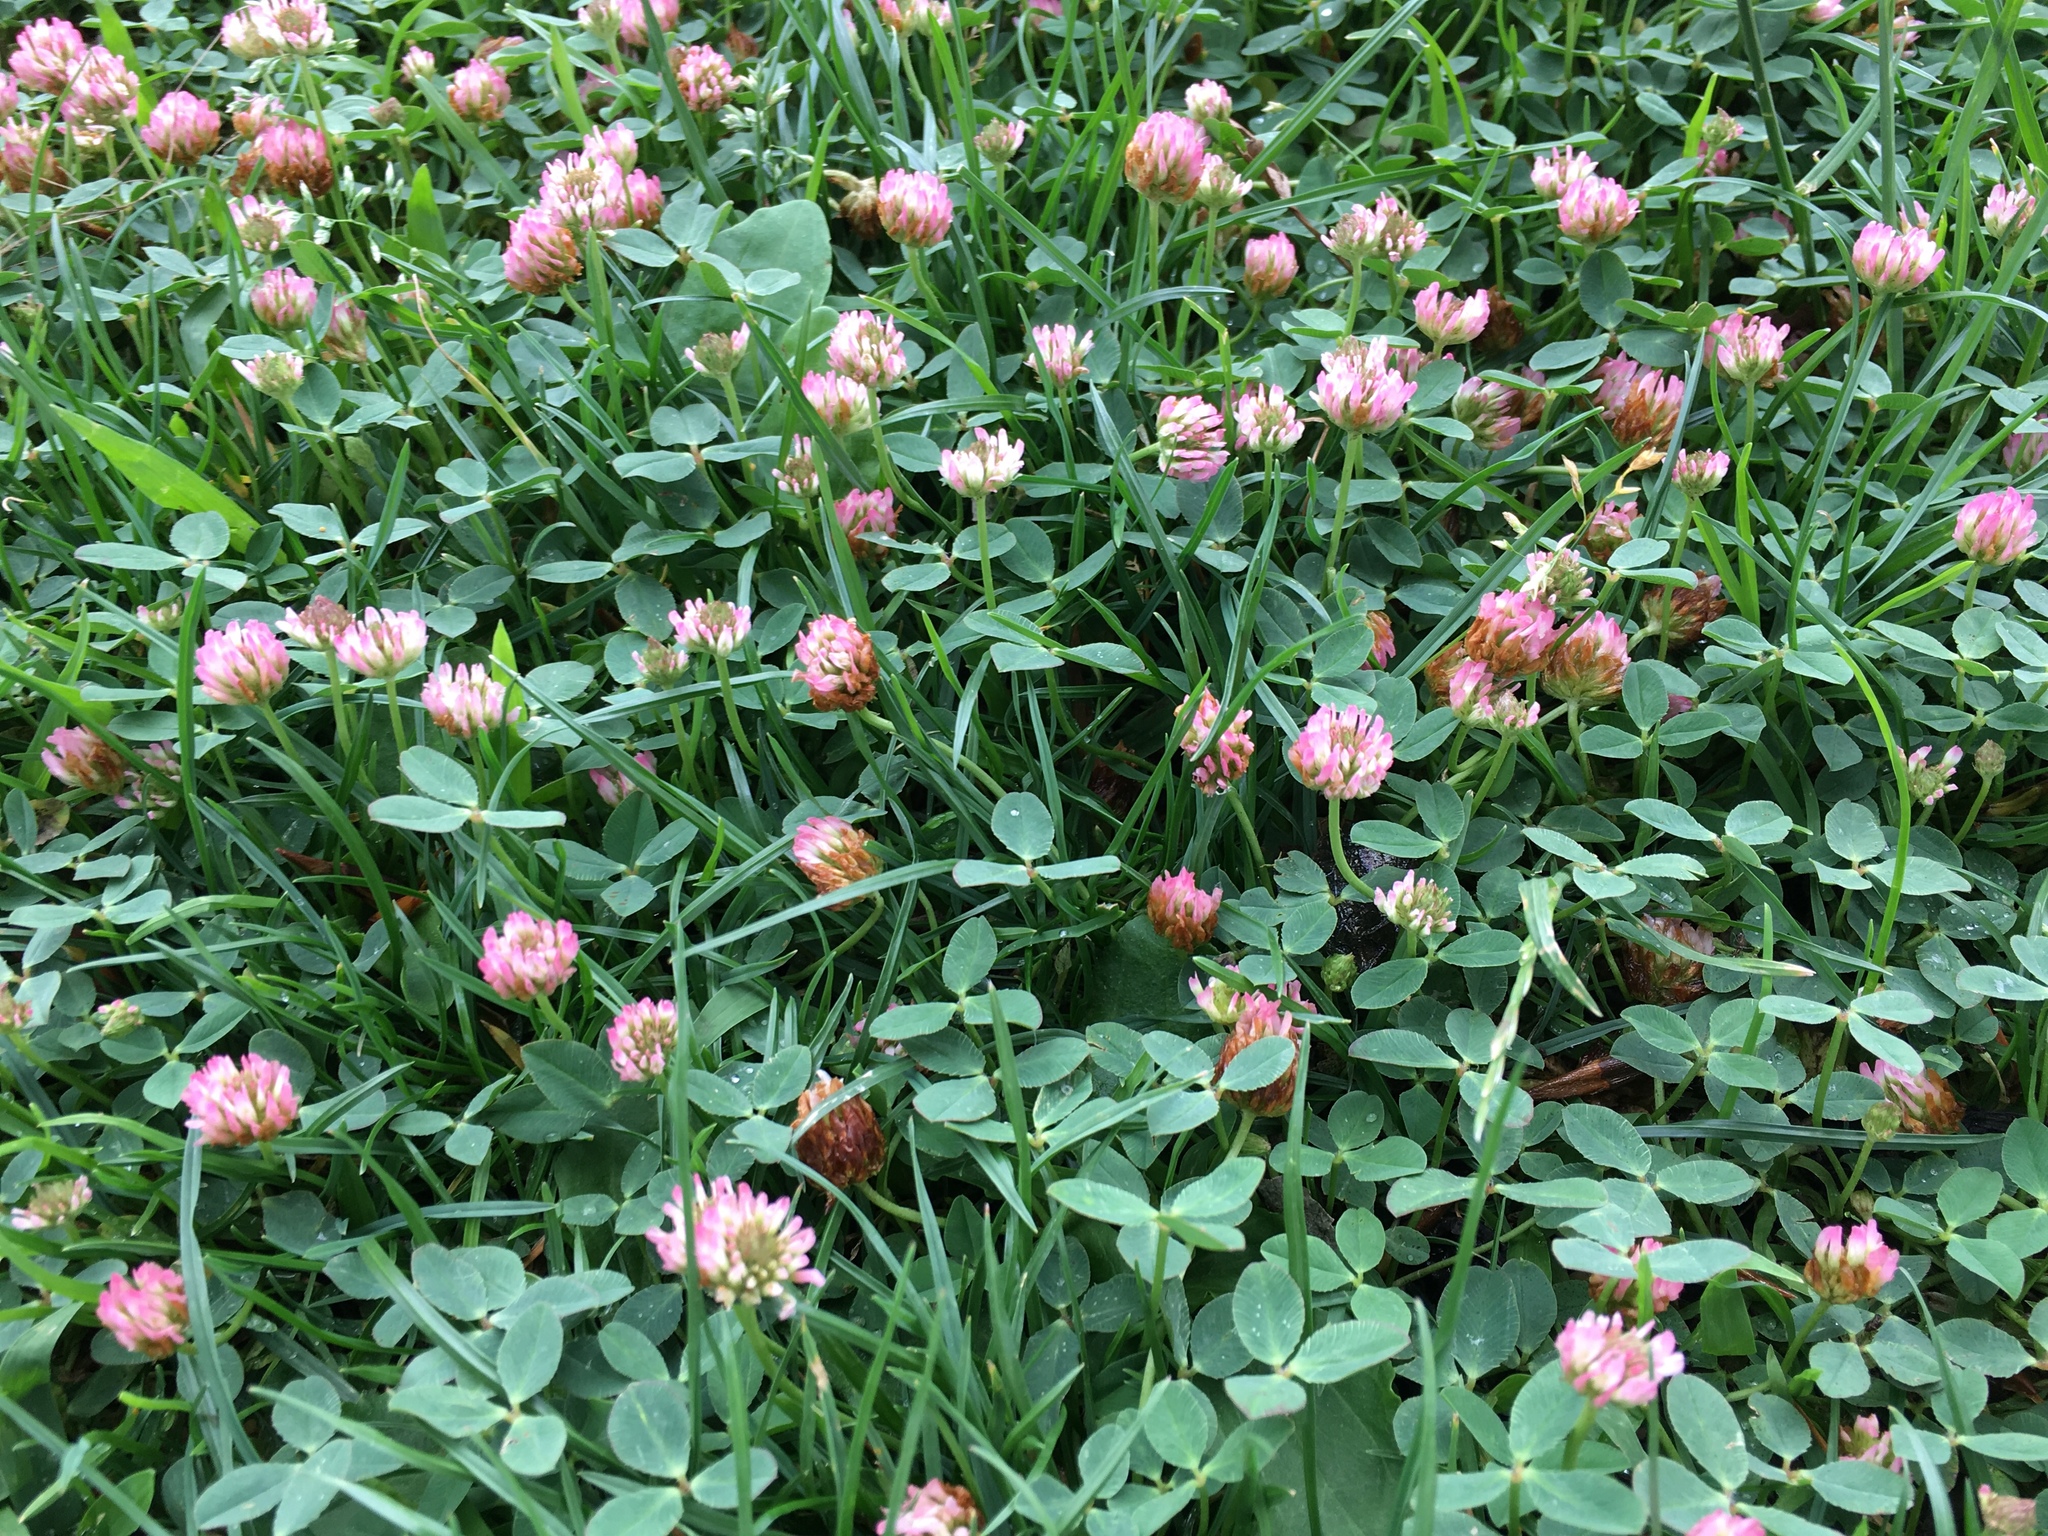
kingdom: Plantae
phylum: Tracheophyta
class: Magnoliopsida
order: Fabales
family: Fabaceae
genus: Trifolium
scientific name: Trifolium fragiferum
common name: Strawberry clover
